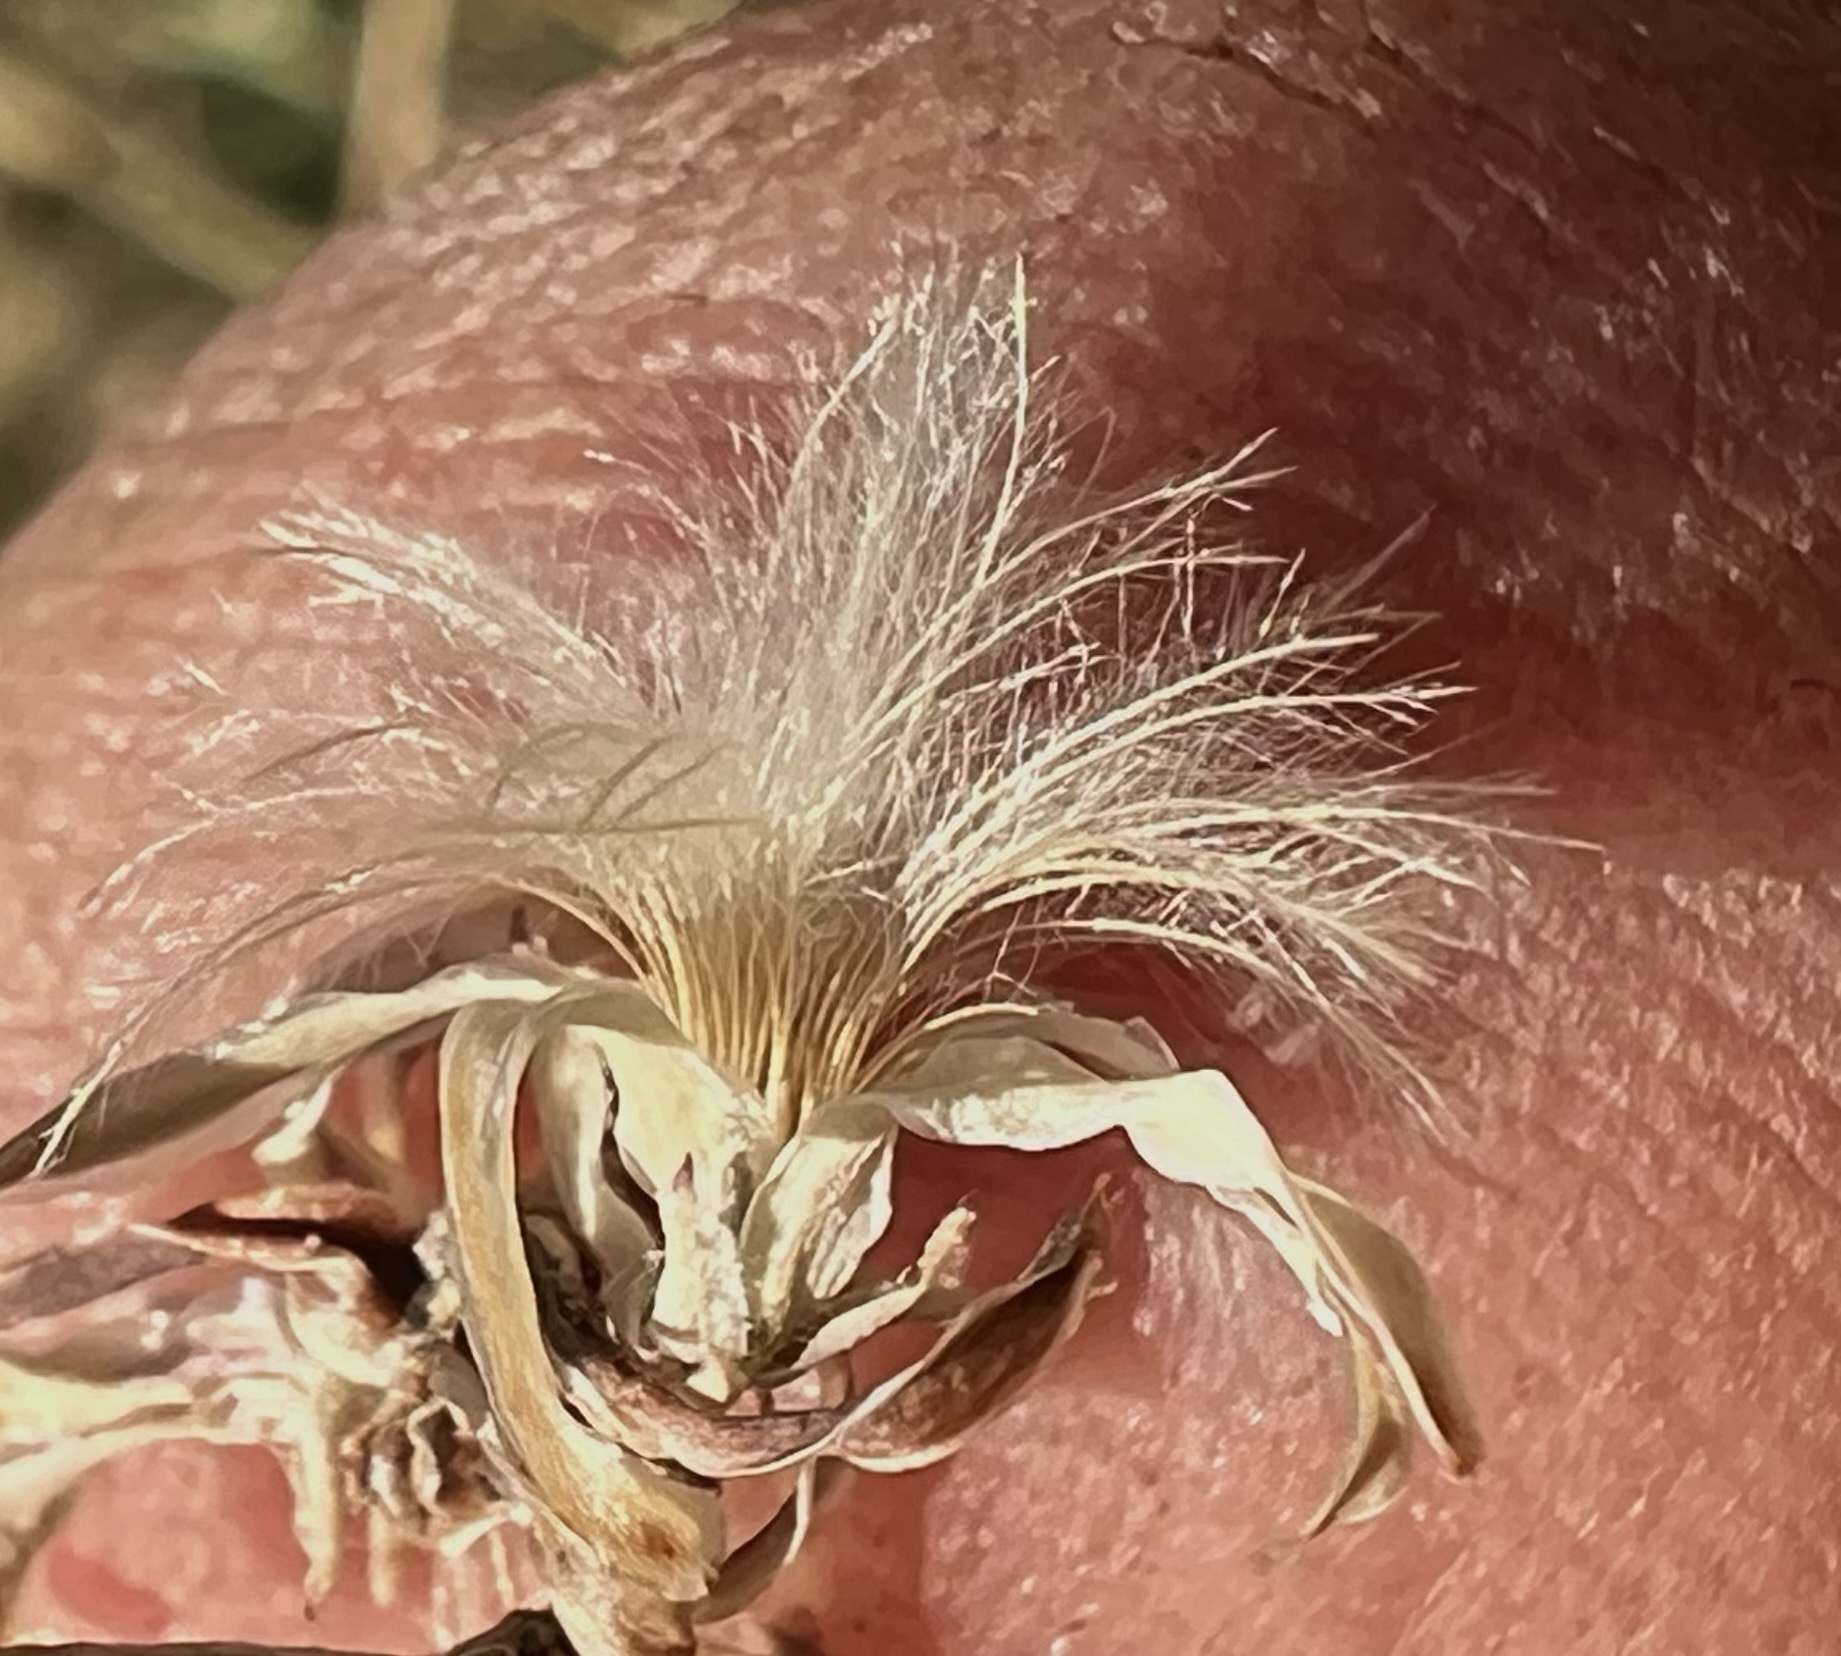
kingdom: Plantae
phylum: Tracheophyta
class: Magnoliopsida
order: Asterales
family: Asteraceae
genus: Stephanomeria
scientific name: Stephanomeria pauciflora
